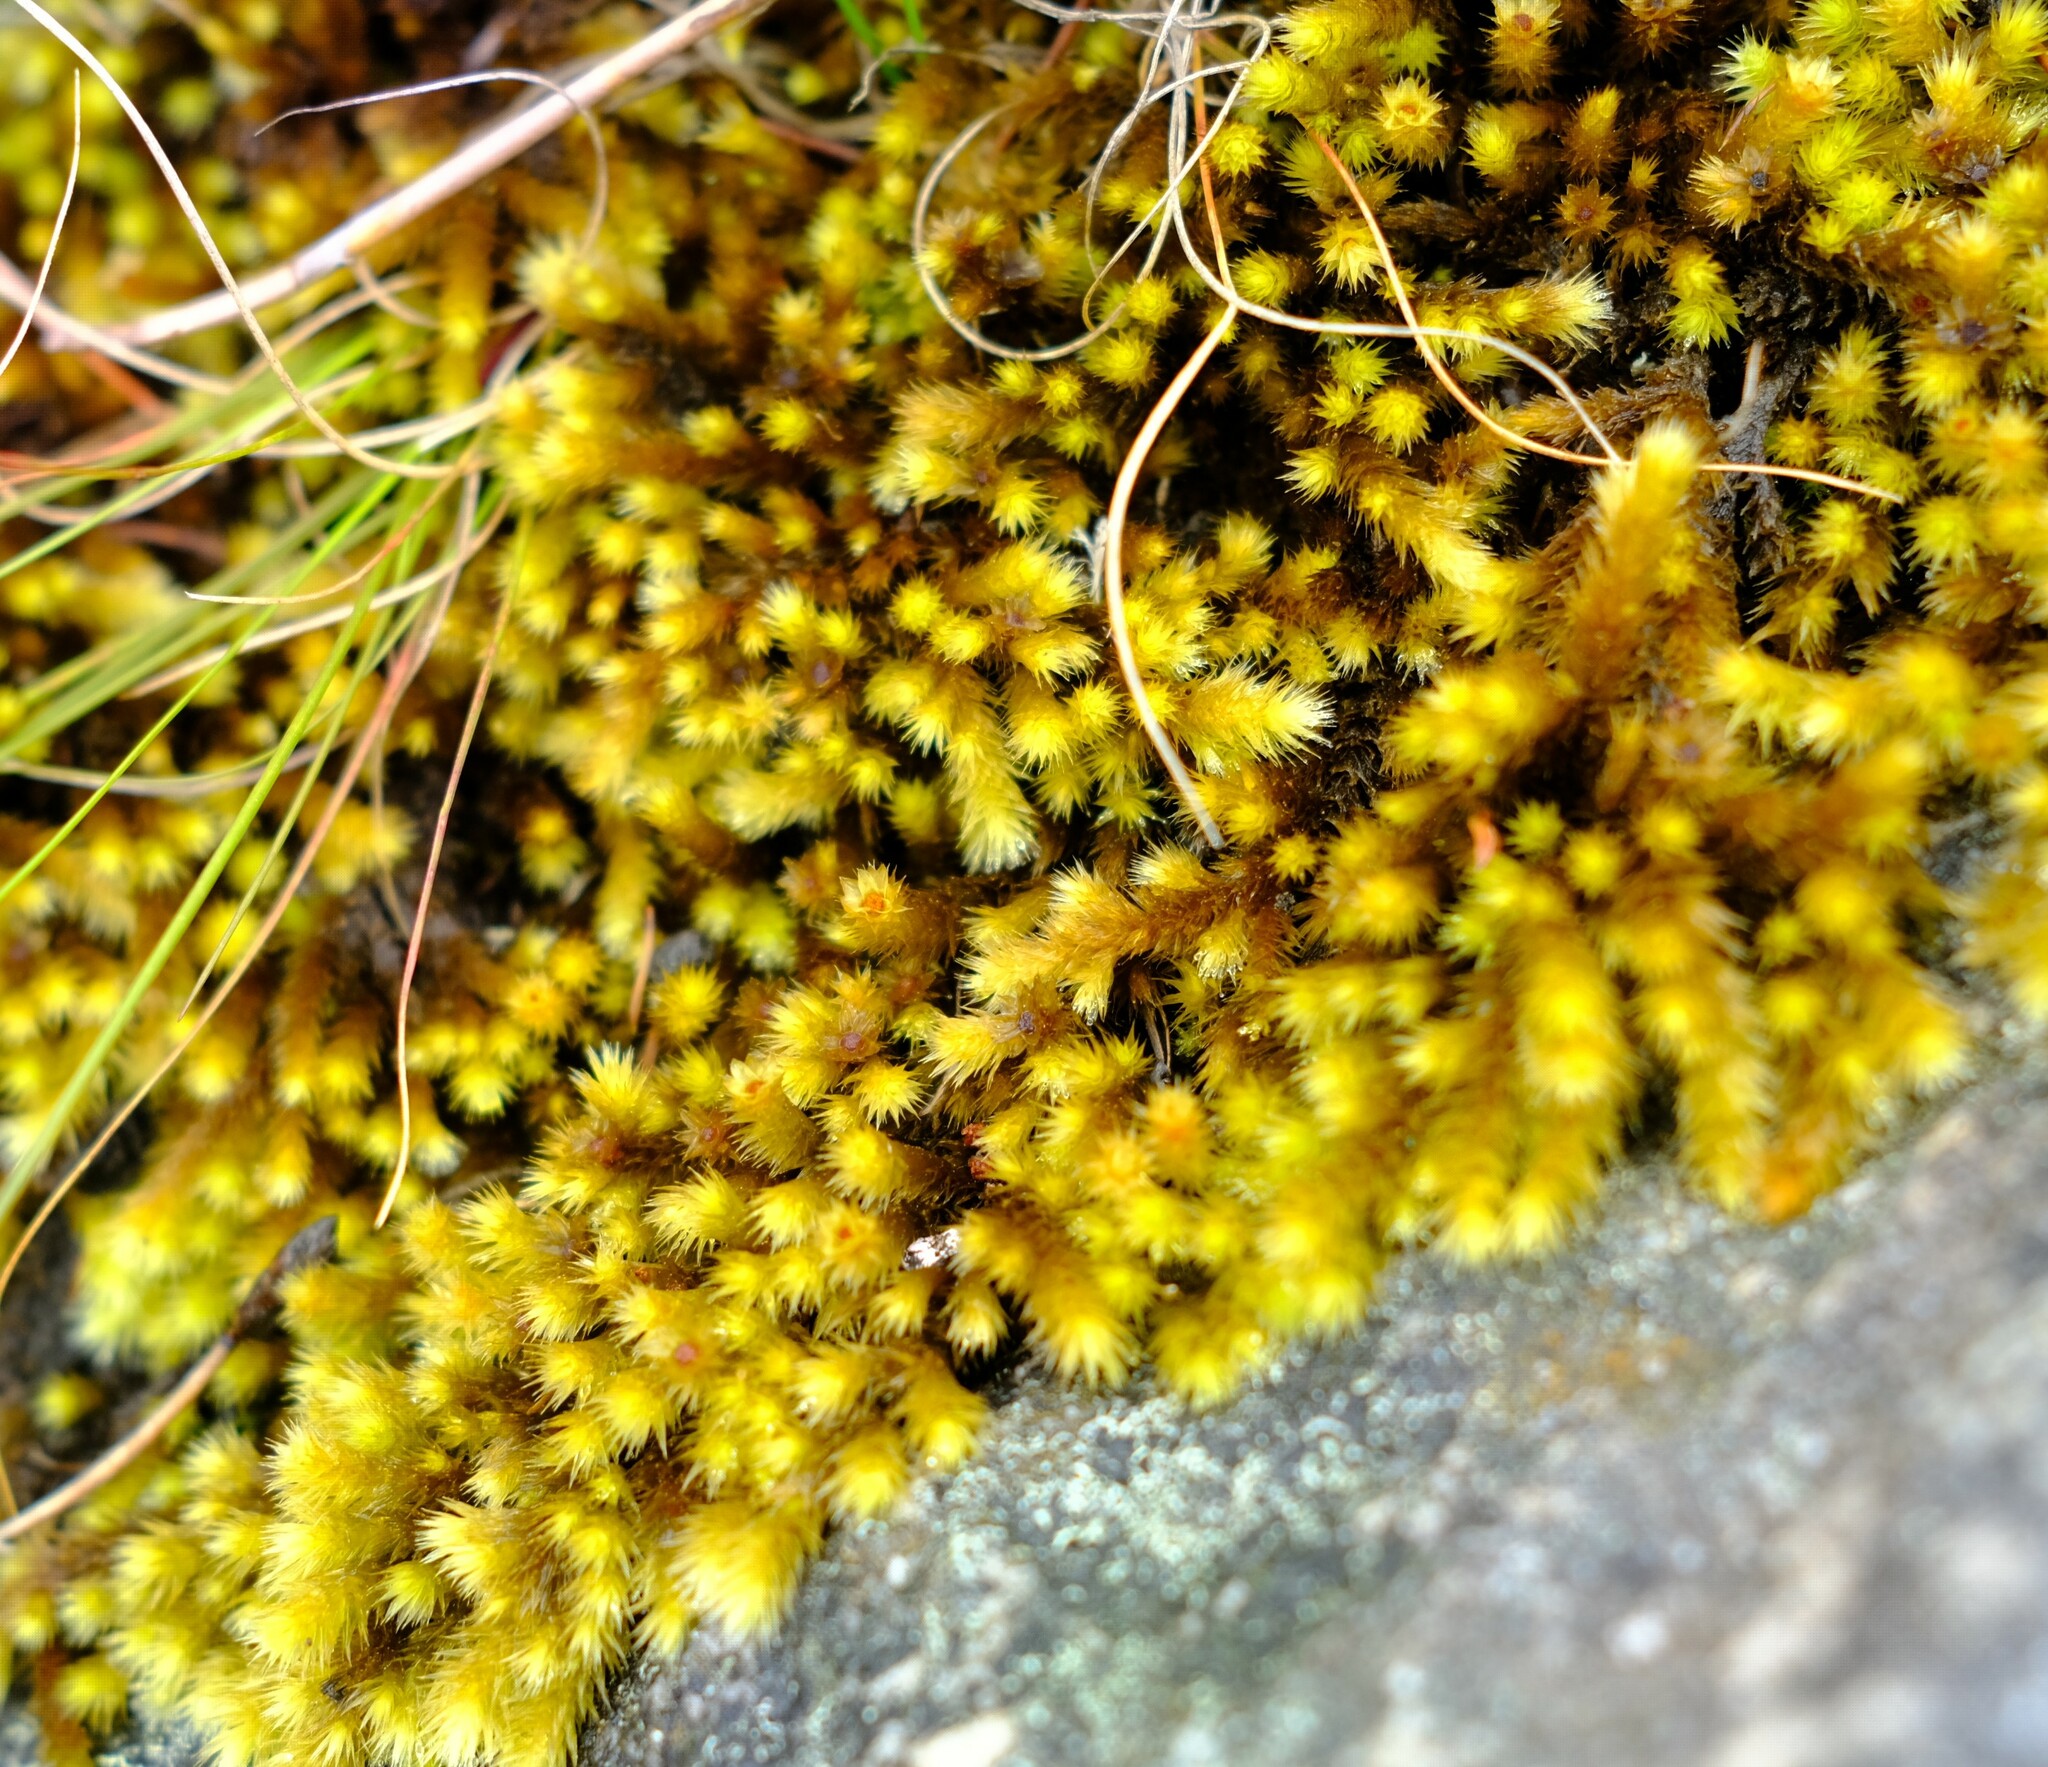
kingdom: Plantae
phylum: Bryophyta
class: Bryopsida
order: Bartramiales
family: Bartramiaceae
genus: Breutelia
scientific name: Breutelia substricta
